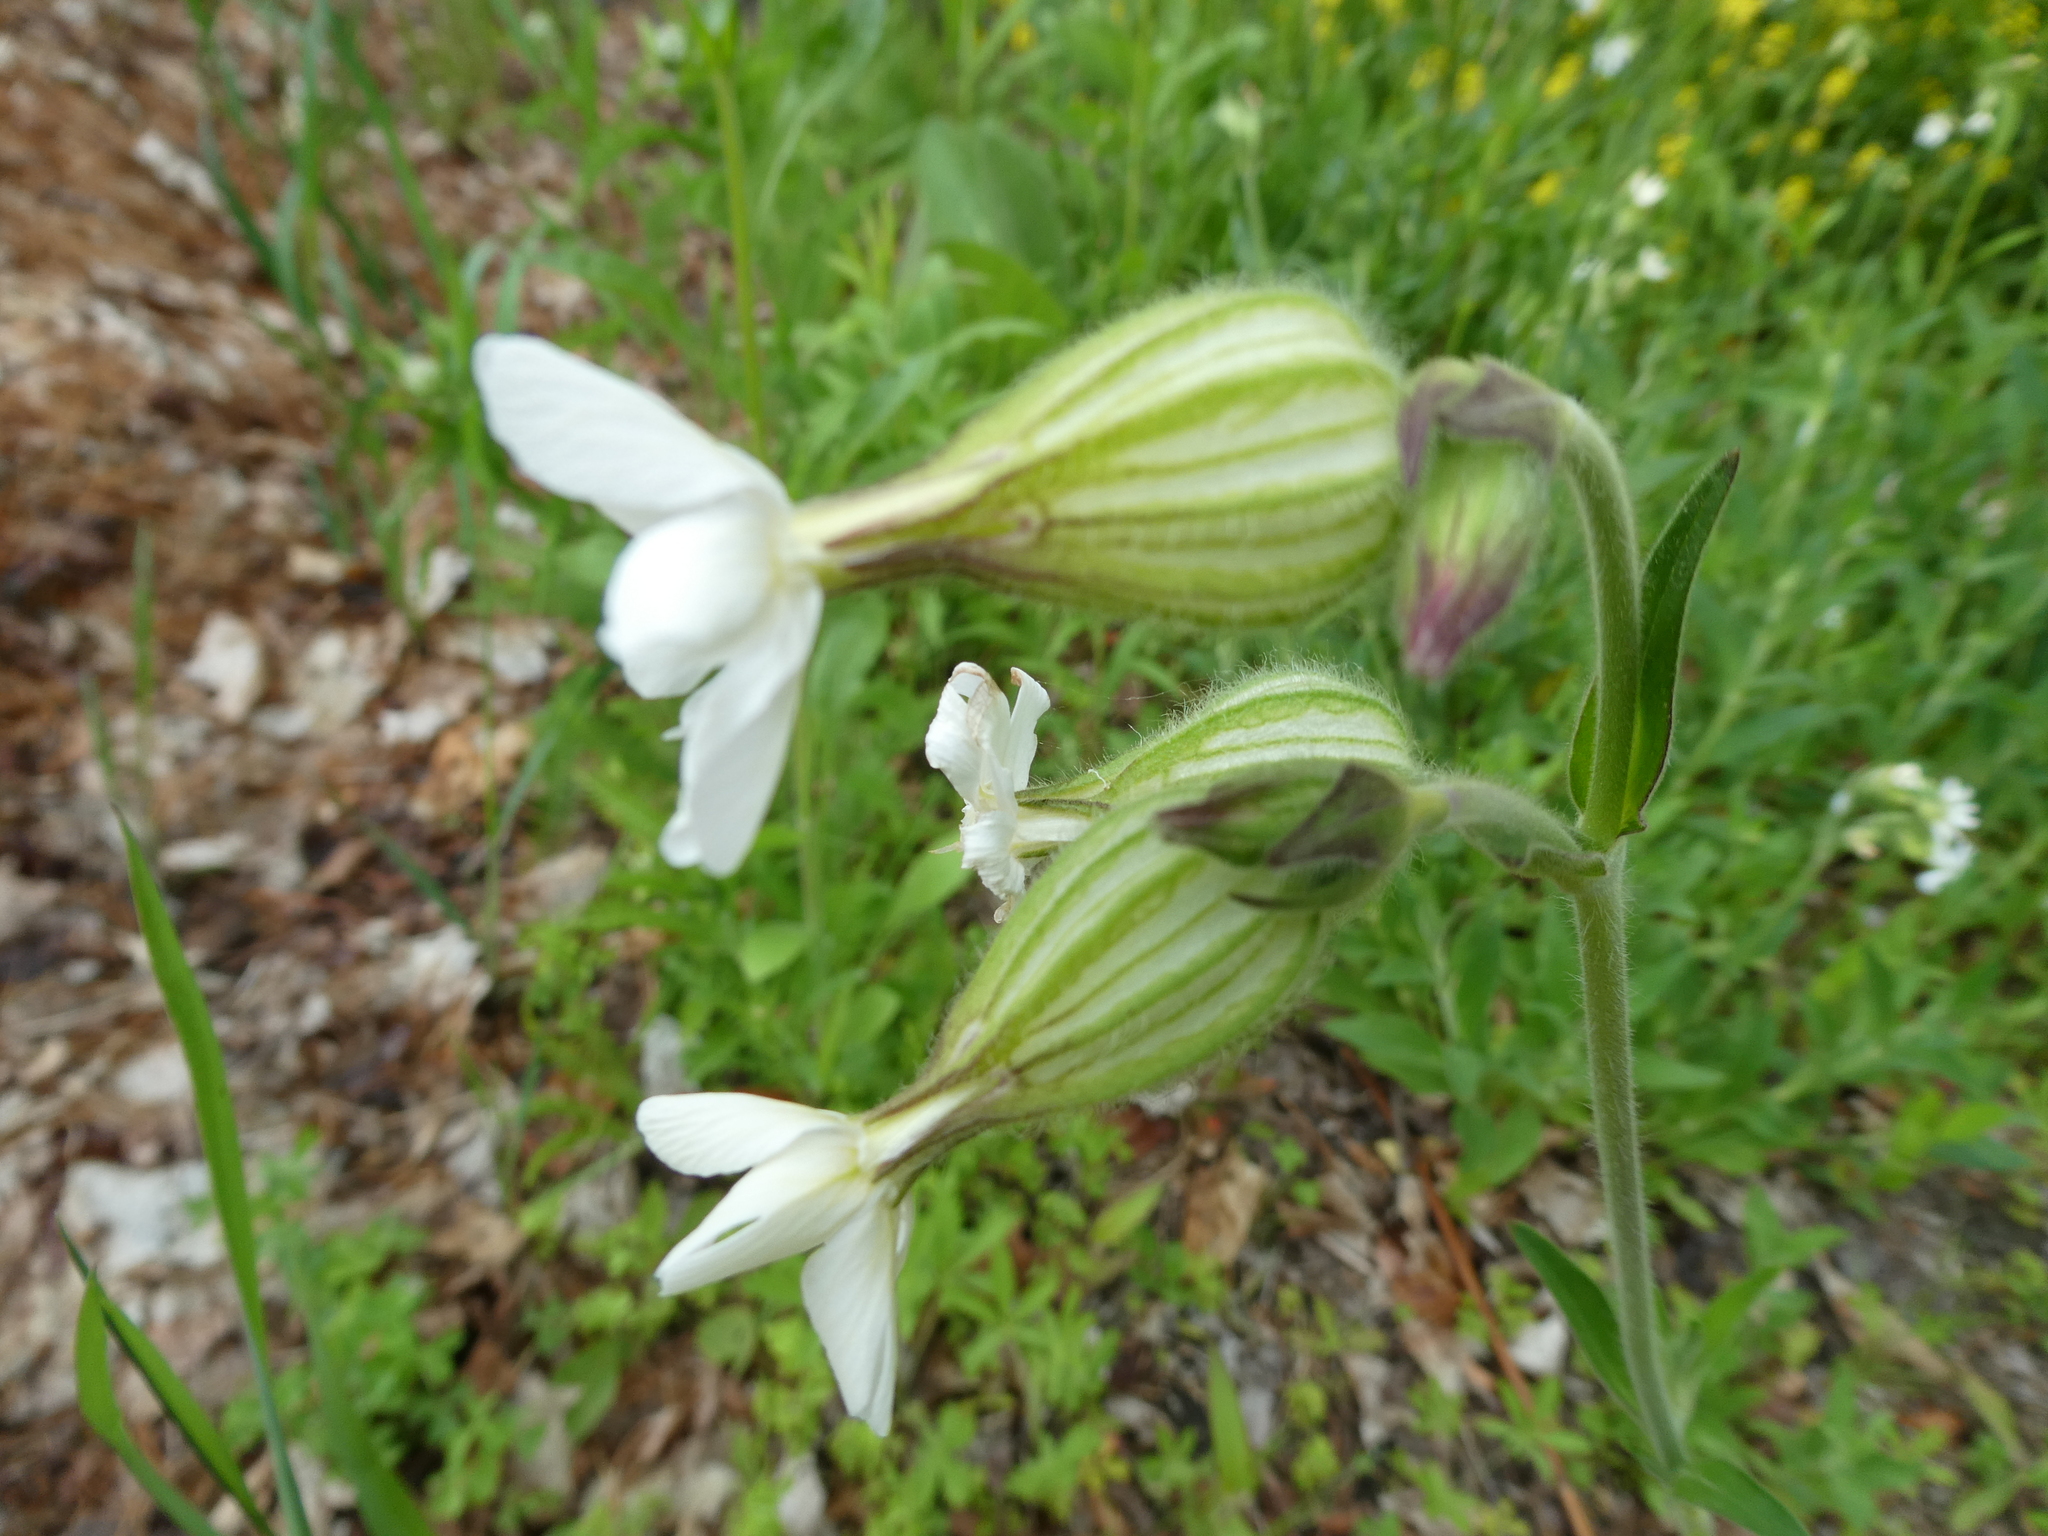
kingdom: Plantae
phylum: Tracheophyta
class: Magnoliopsida
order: Caryophyllales
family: Caryophyllaceae
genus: Silene
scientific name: Silene latifolia
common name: White campion
